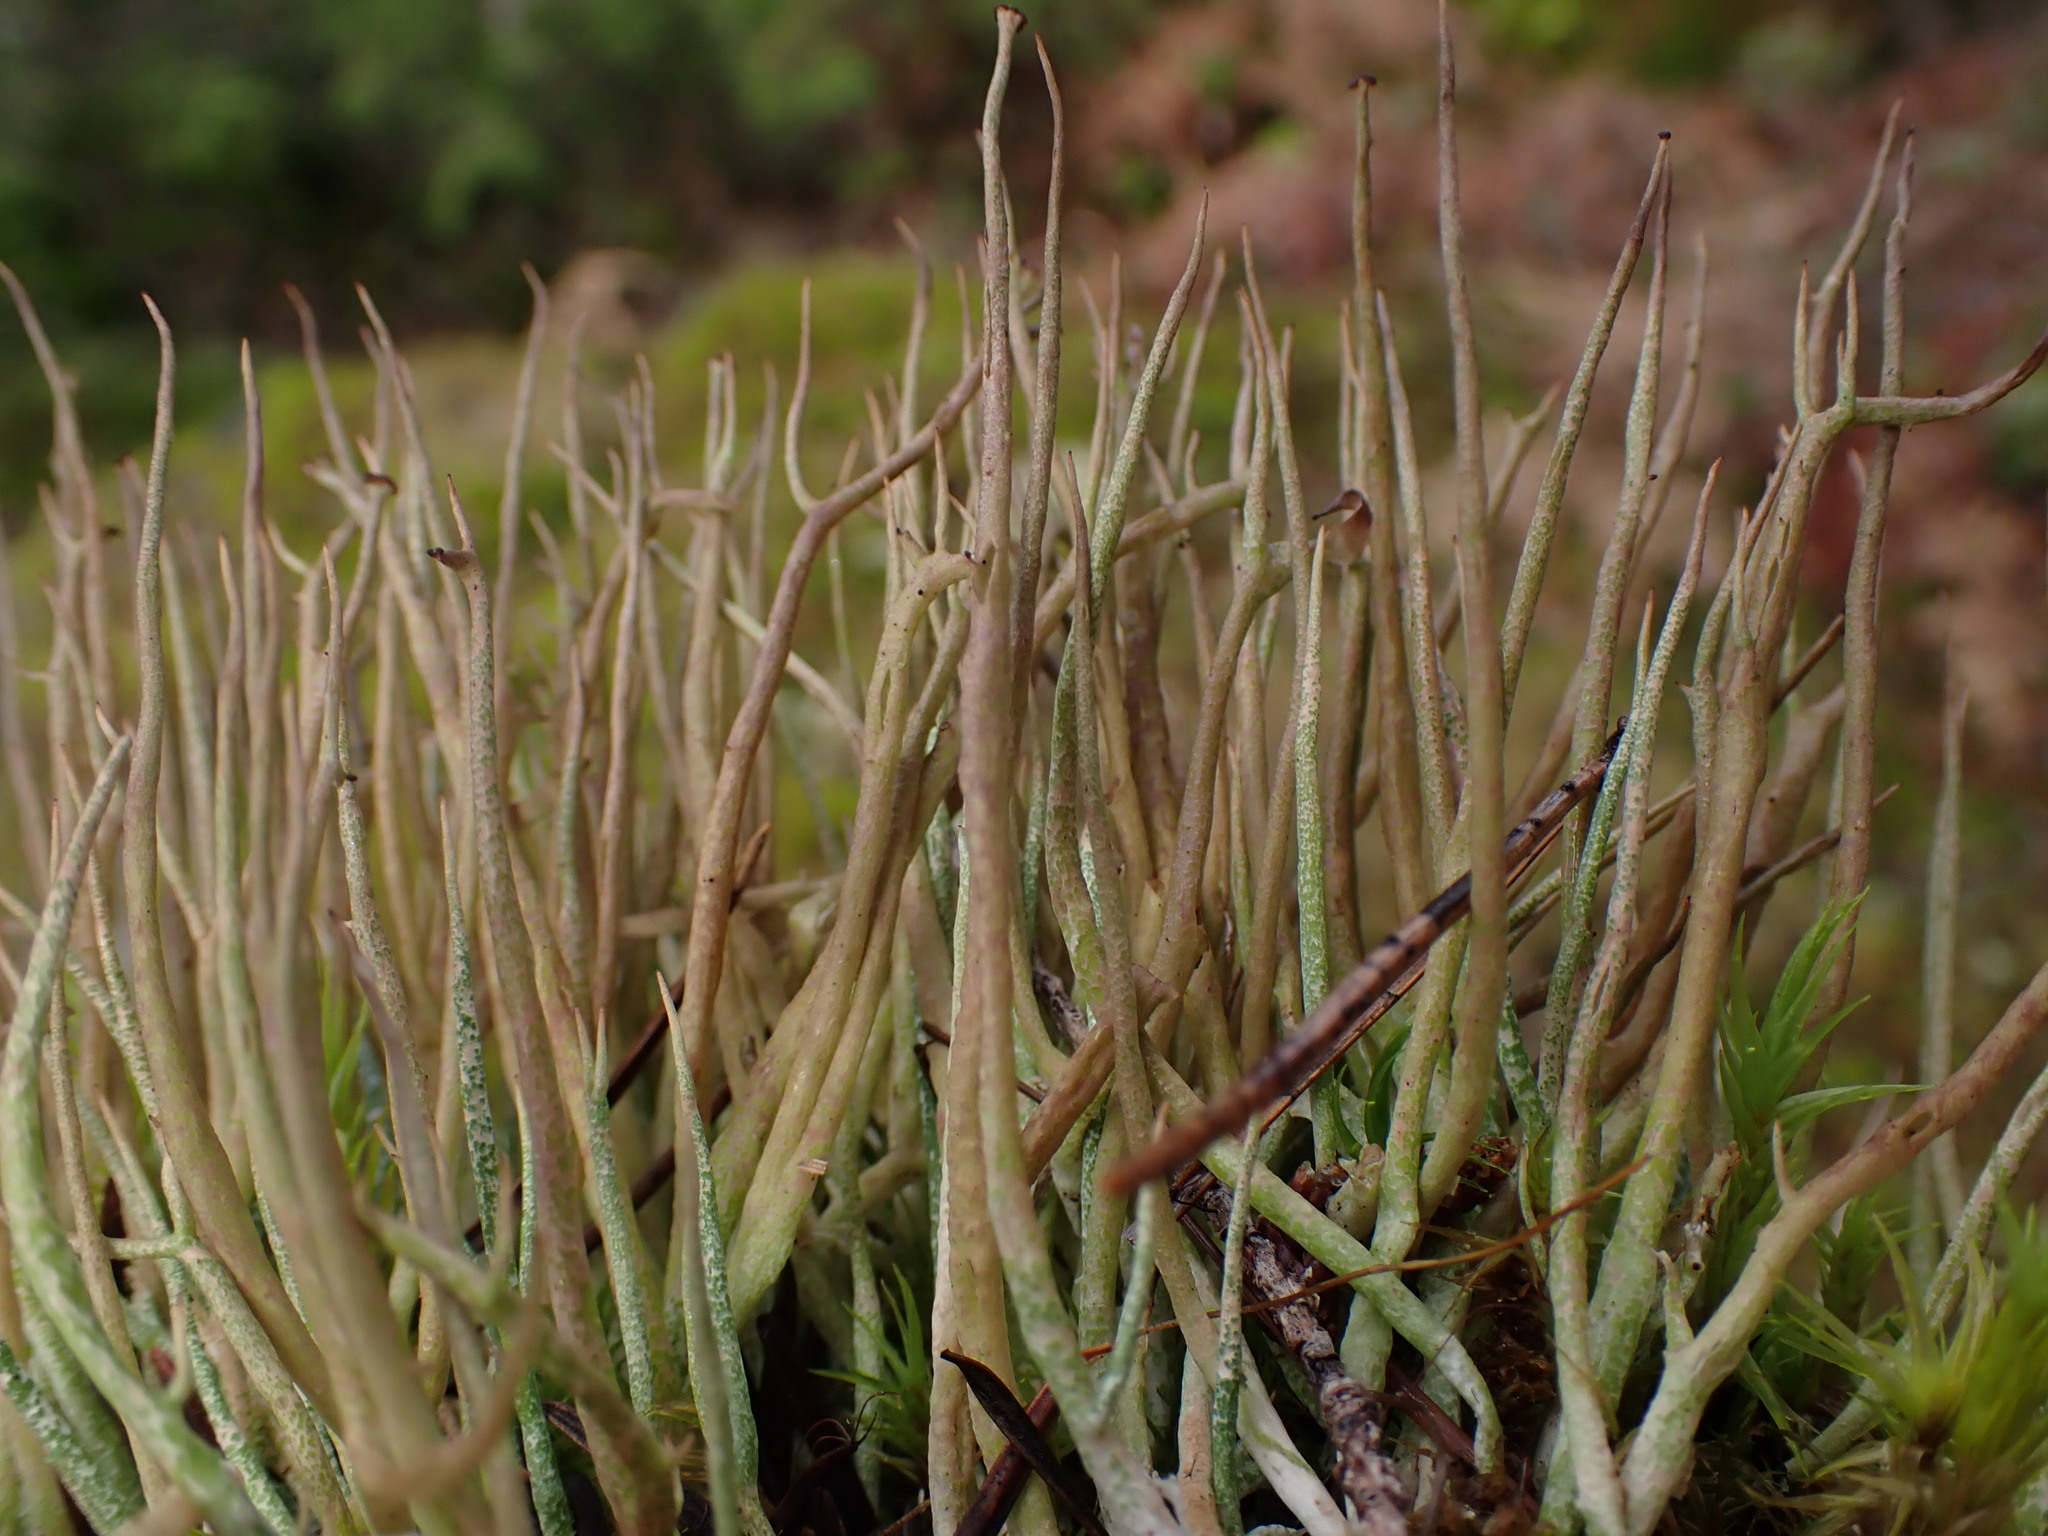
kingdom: Fungi
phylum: Ascomycota
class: Lecanoromycetes
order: Lecanorales
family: Cladoniaceae
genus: Cladonia
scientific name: Cladonia gracilis
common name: Smooth clad lichen
